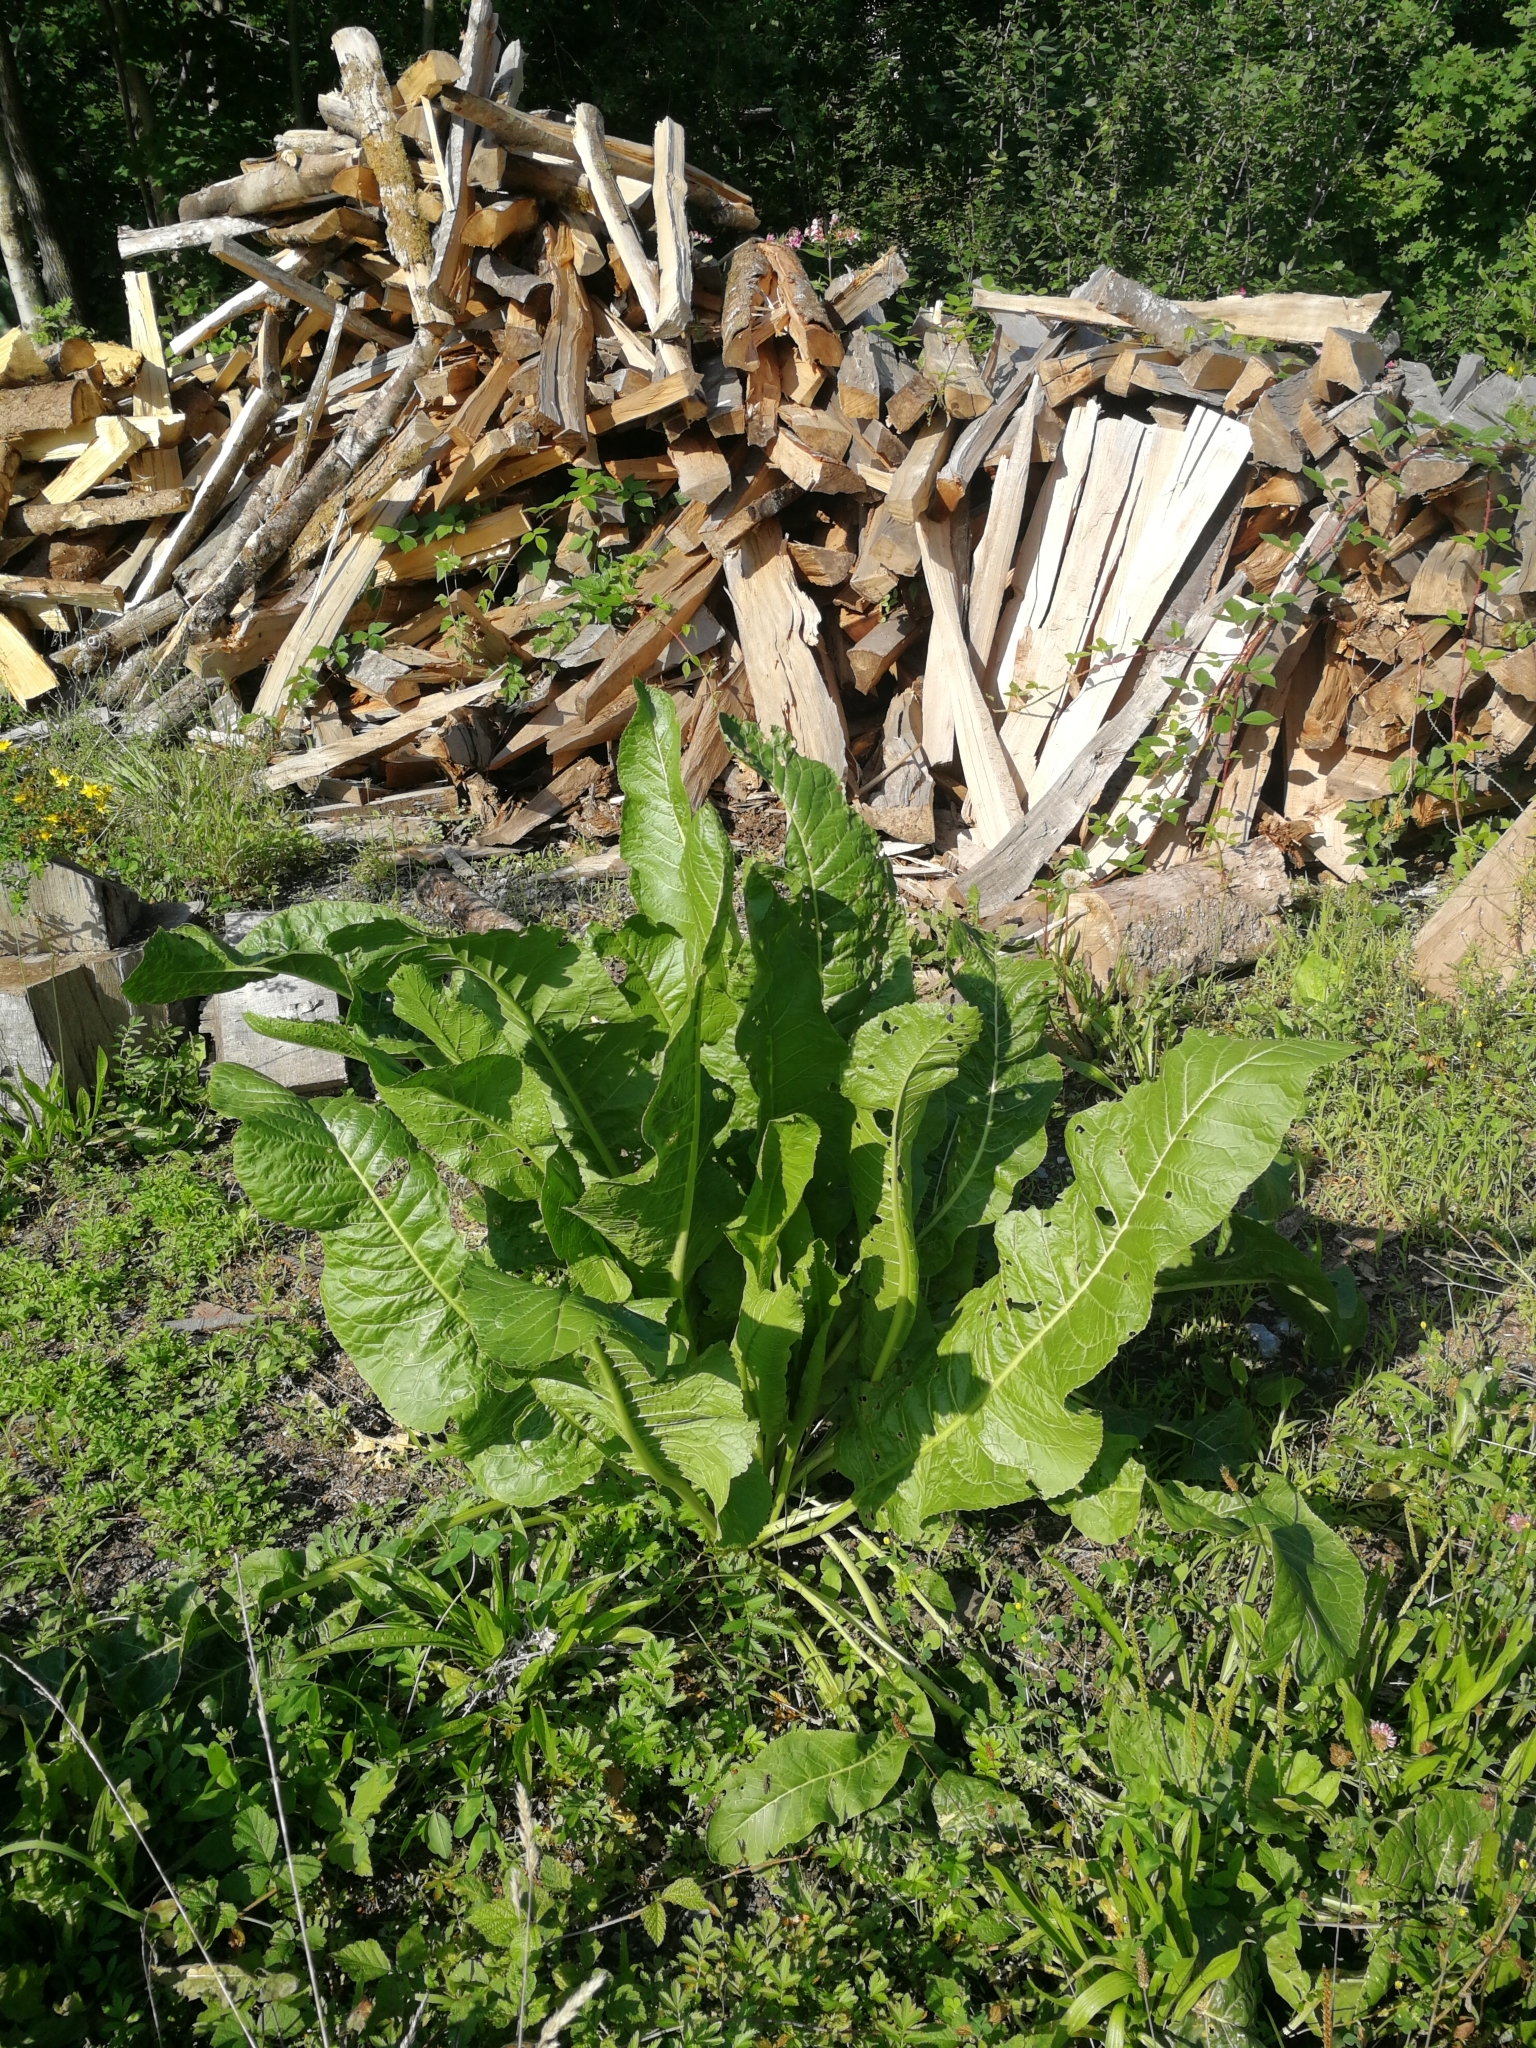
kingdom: Plantae
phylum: Tracheophyta
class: Magnoliopsida
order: Brassicales
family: Brassicaceae
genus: Armoracia
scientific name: Armoracia rusticana
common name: Horseradish
